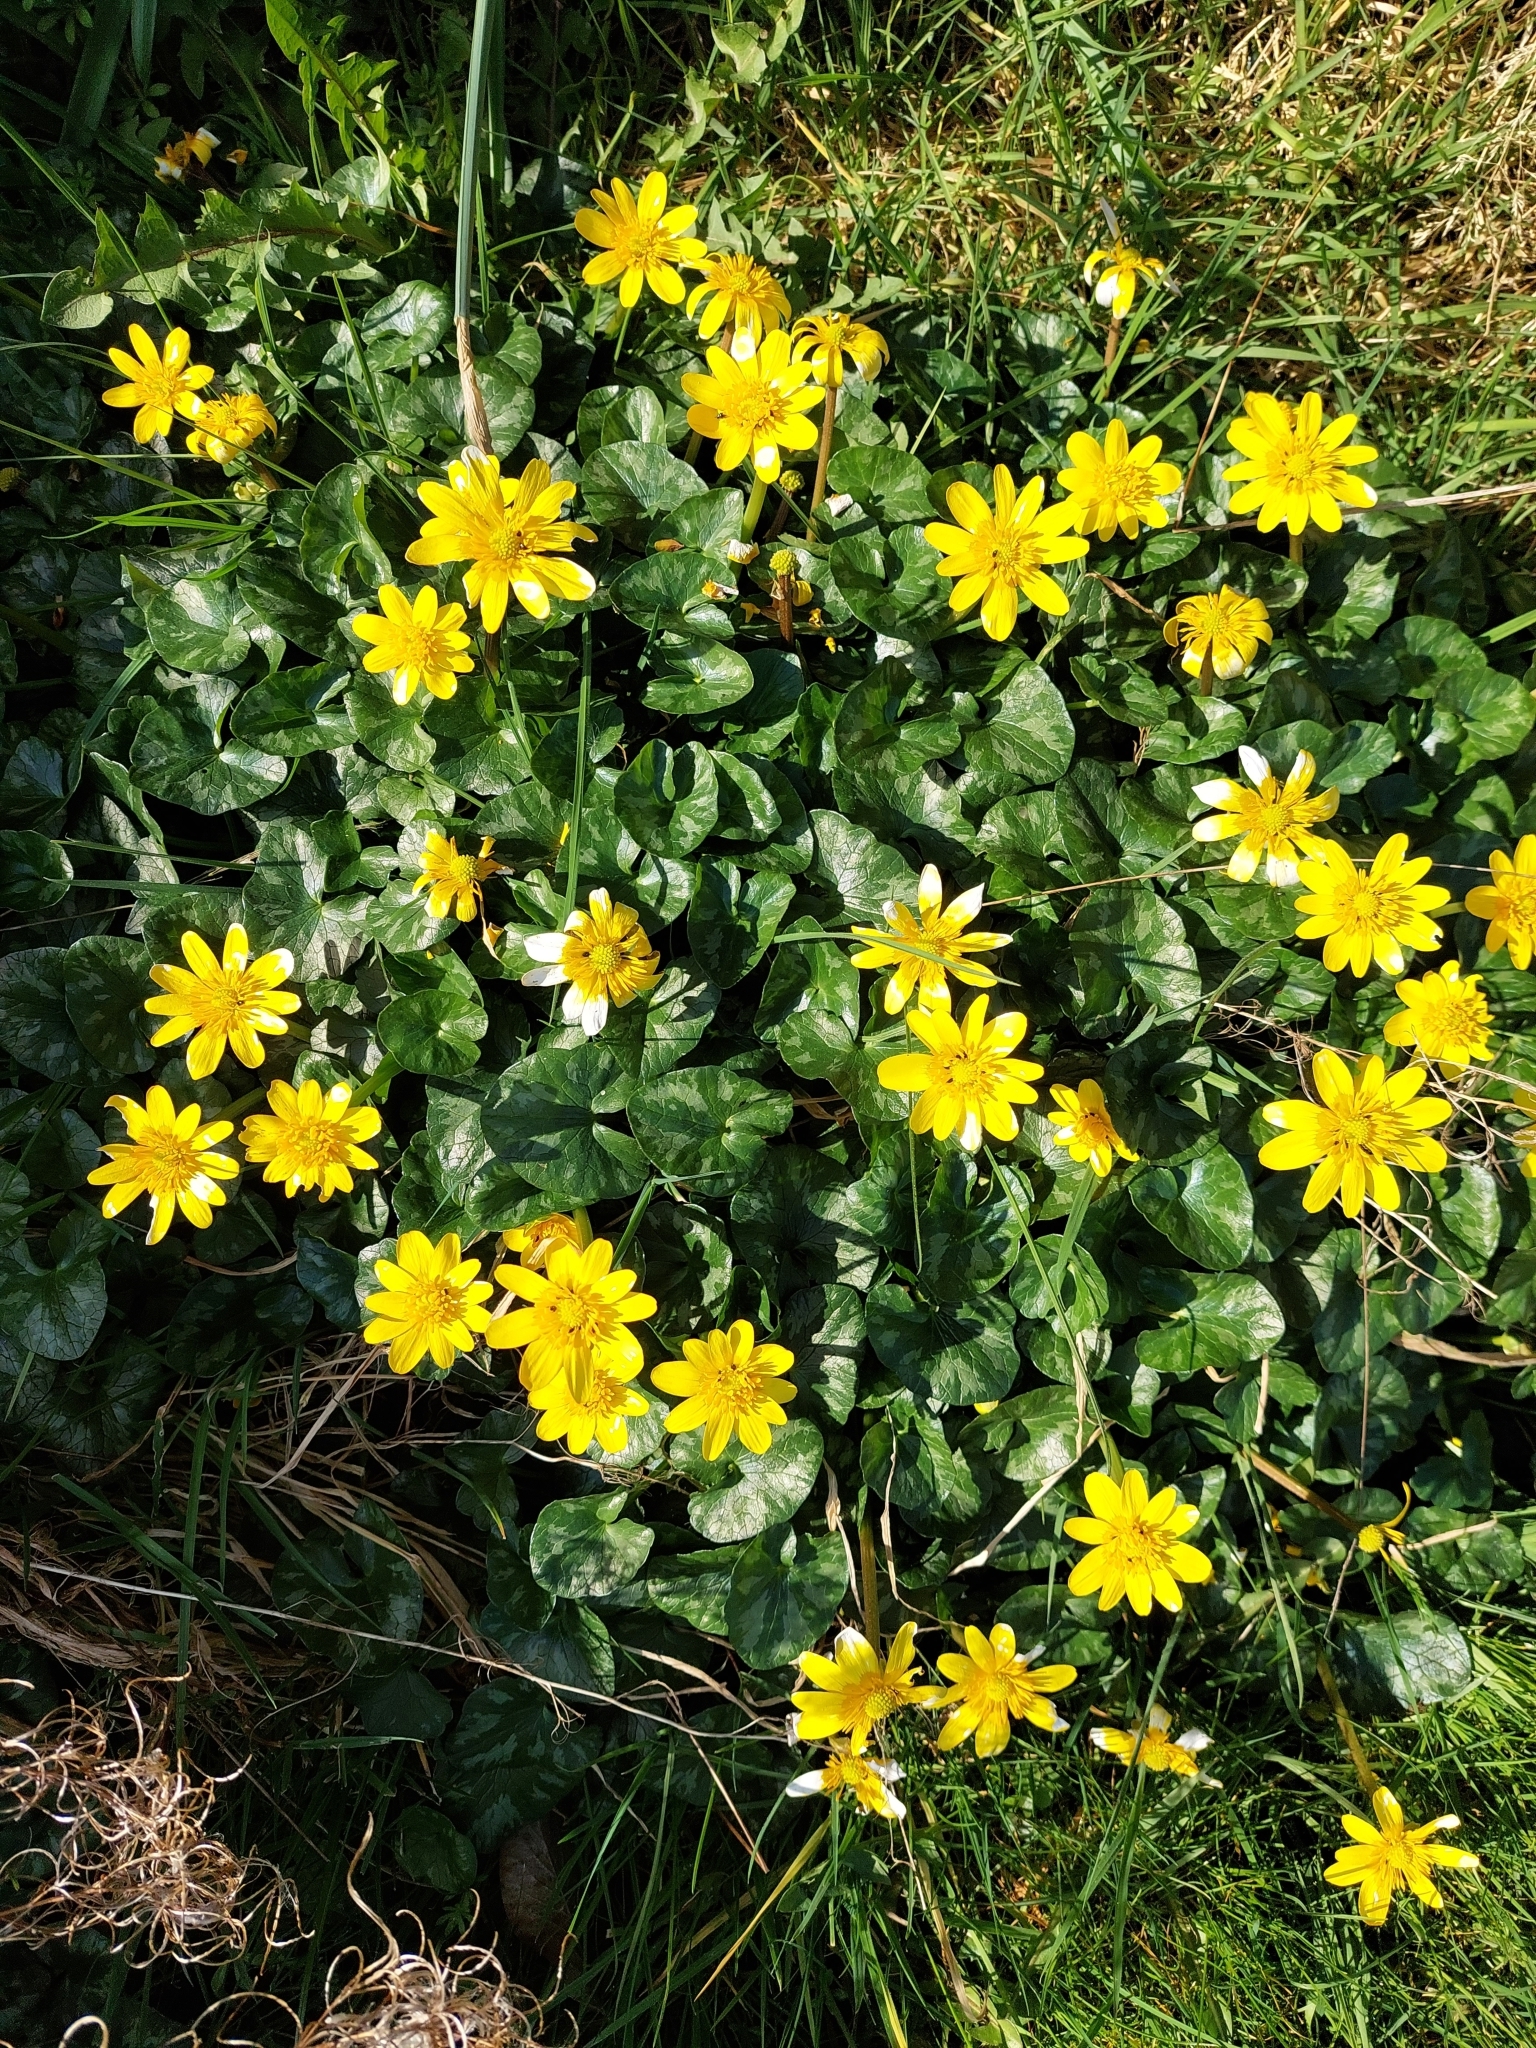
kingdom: Plantae
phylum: Tracheophyta
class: Magnoliopsida
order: Ranunculales
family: Ranunculaceae
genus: Ficaria
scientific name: Ficaria verna
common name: Lesser celandine
